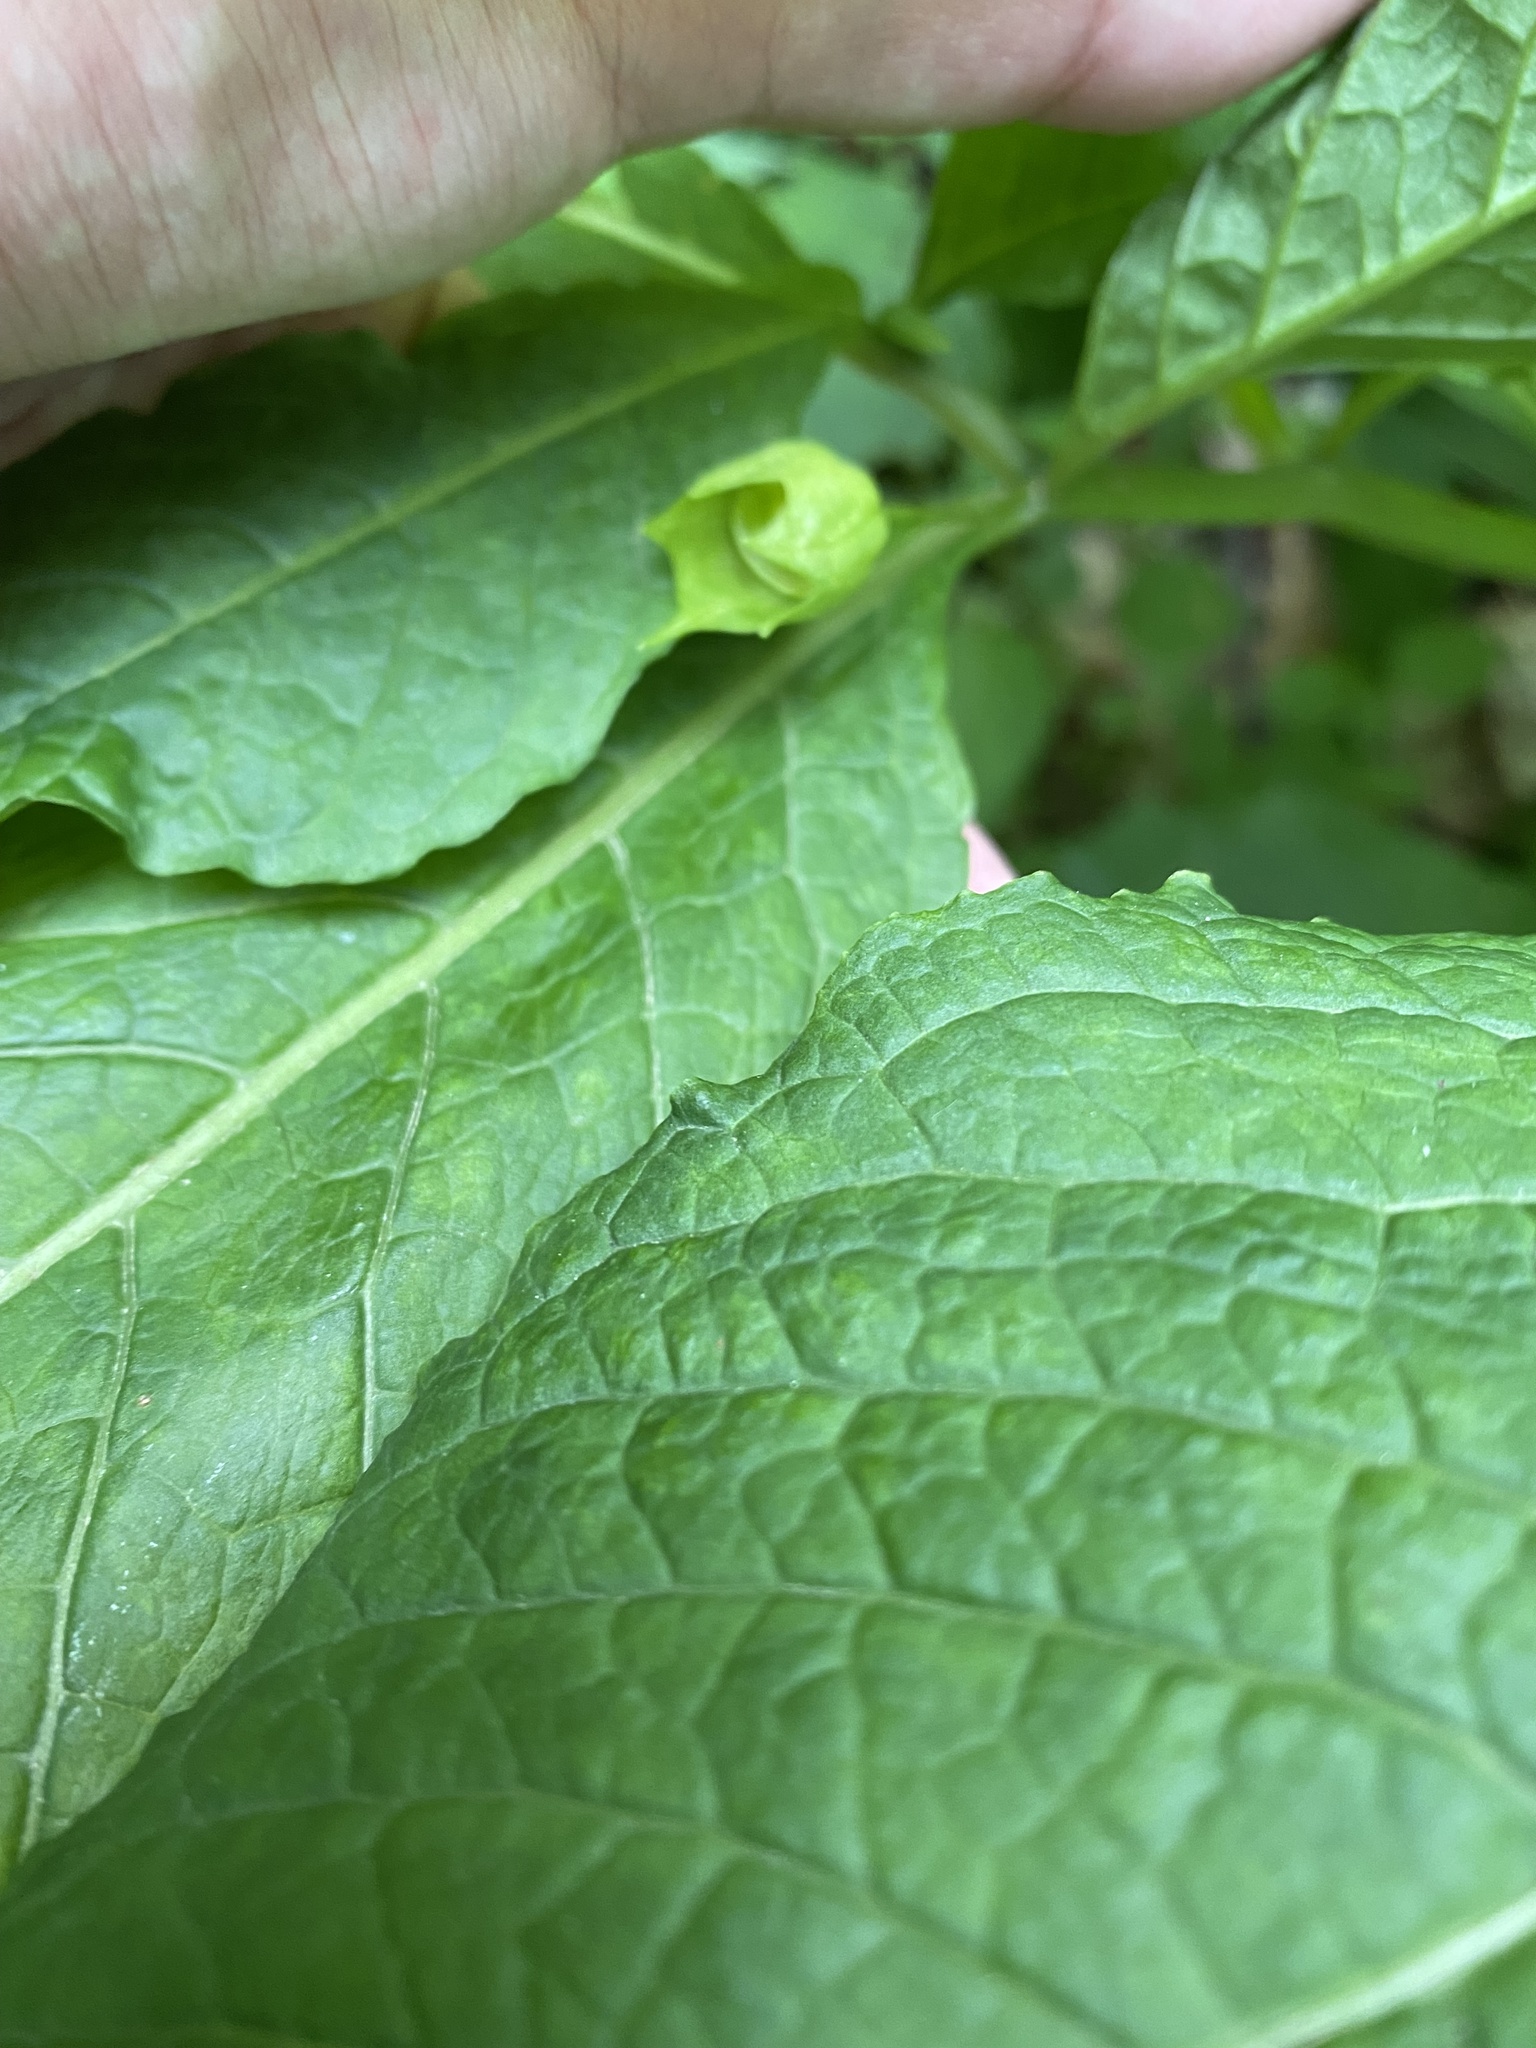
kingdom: Plantae
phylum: Tracheophyta
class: Magnoliopsida
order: Solanales
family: Solanaceae
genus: Scopolia
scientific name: Scopolia carniolica
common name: Scopolia
